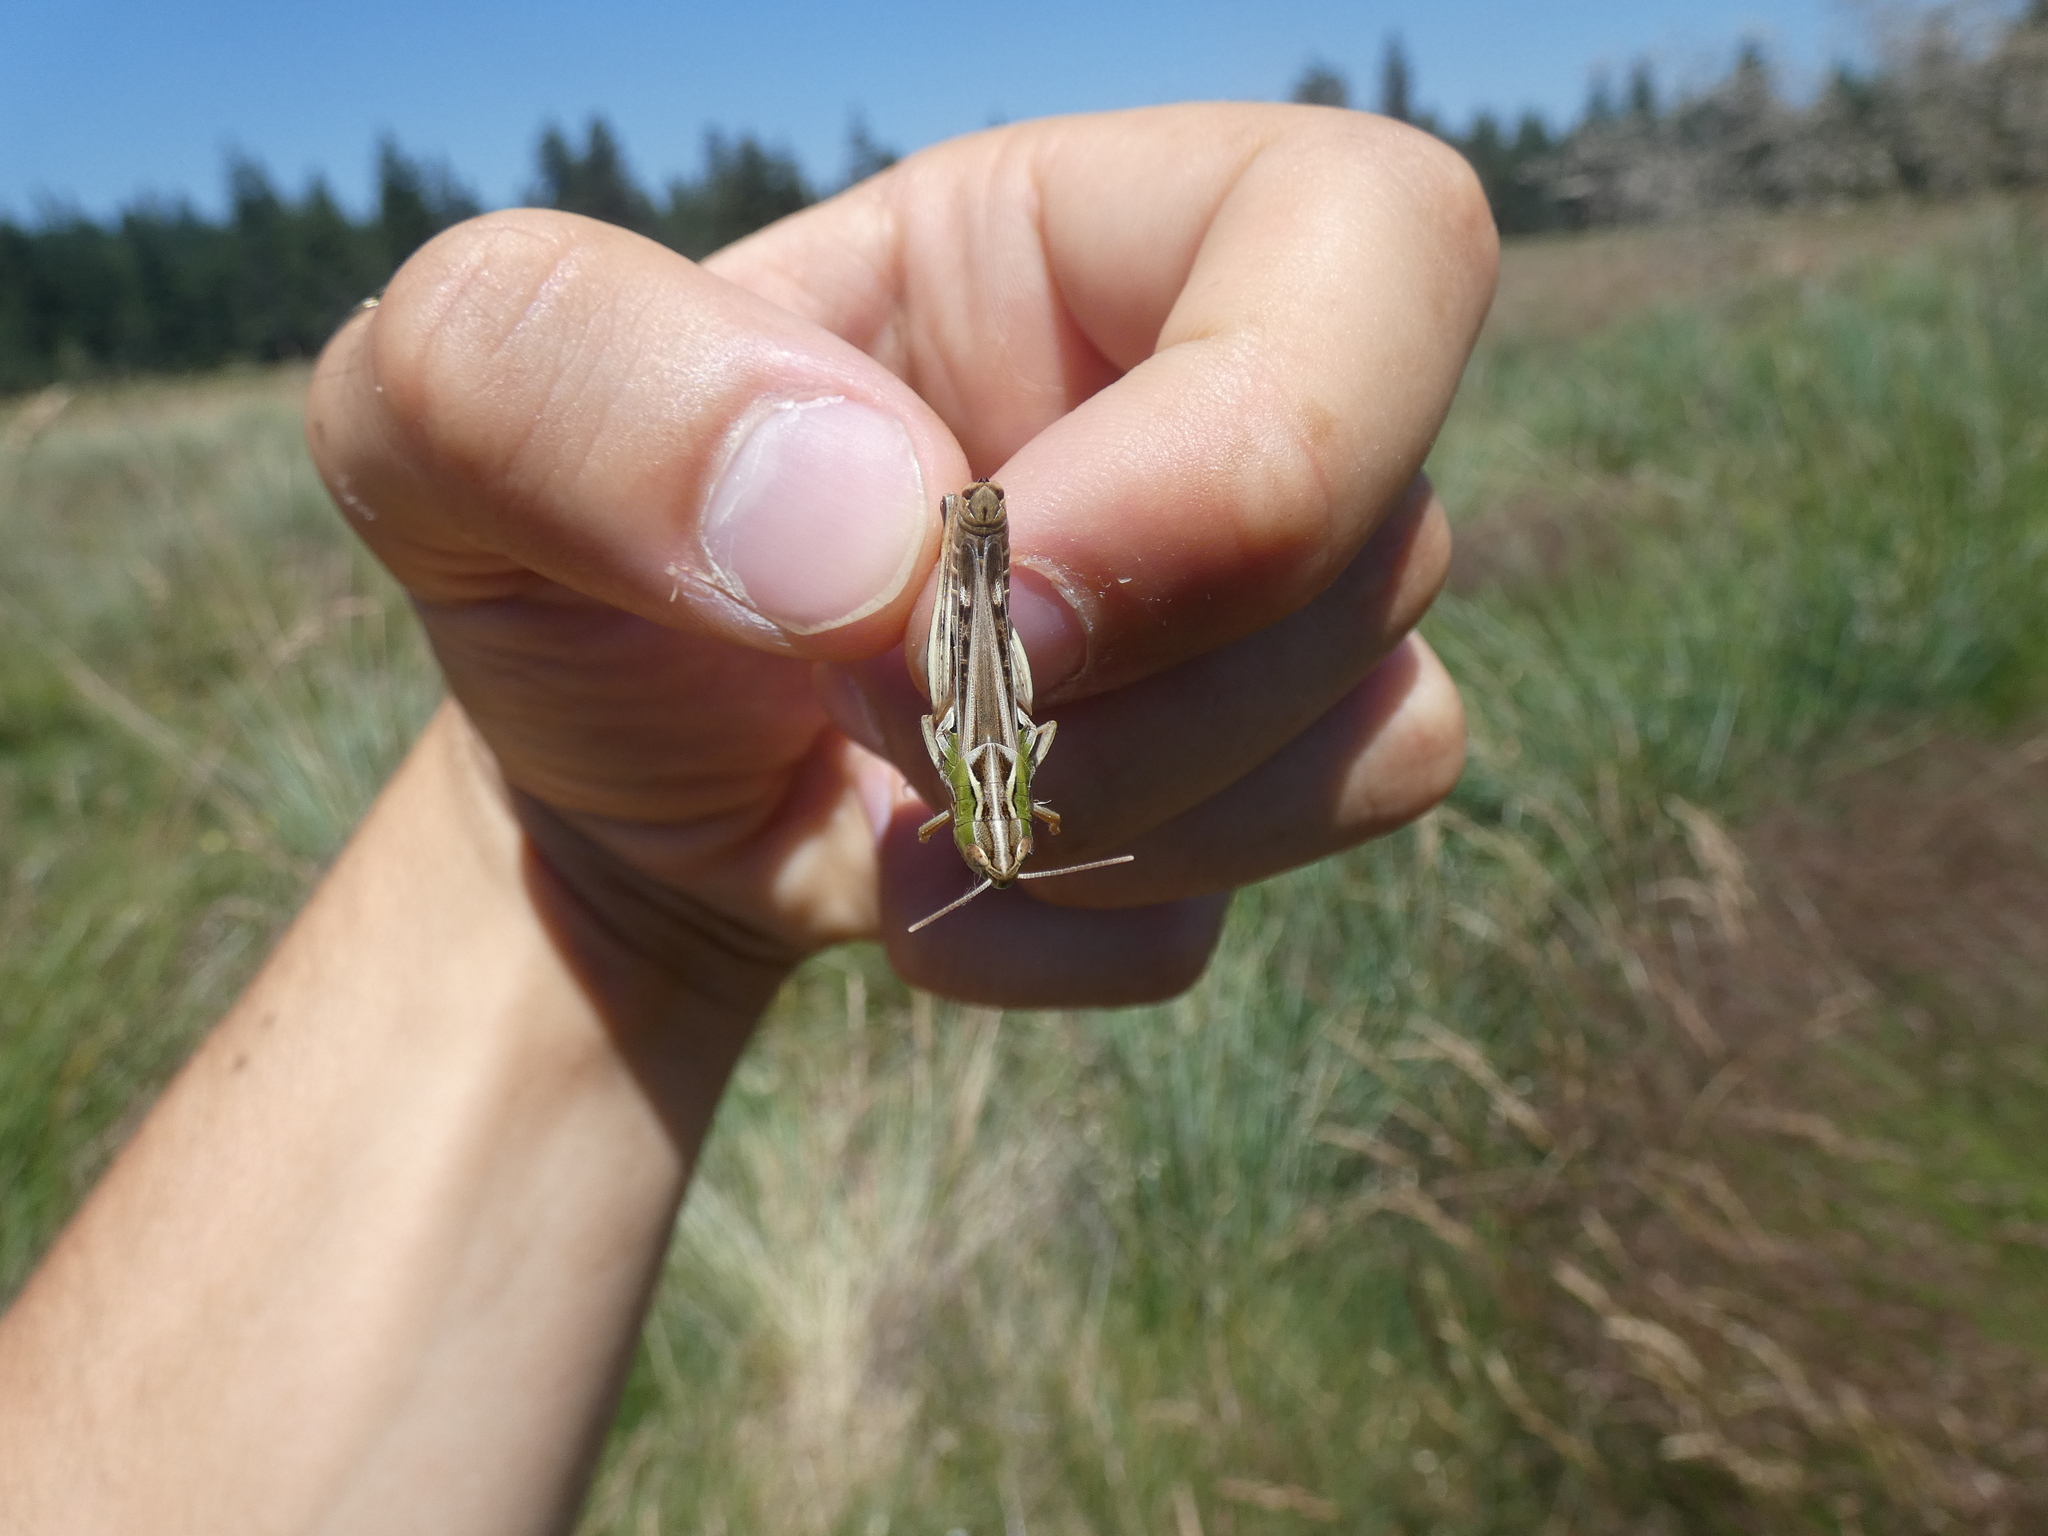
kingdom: Animalia
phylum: Arthropoda
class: Insecta
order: Orthoptera
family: Acrididae
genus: Stenobothrus
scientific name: Stenobothrus nigromaculatus
